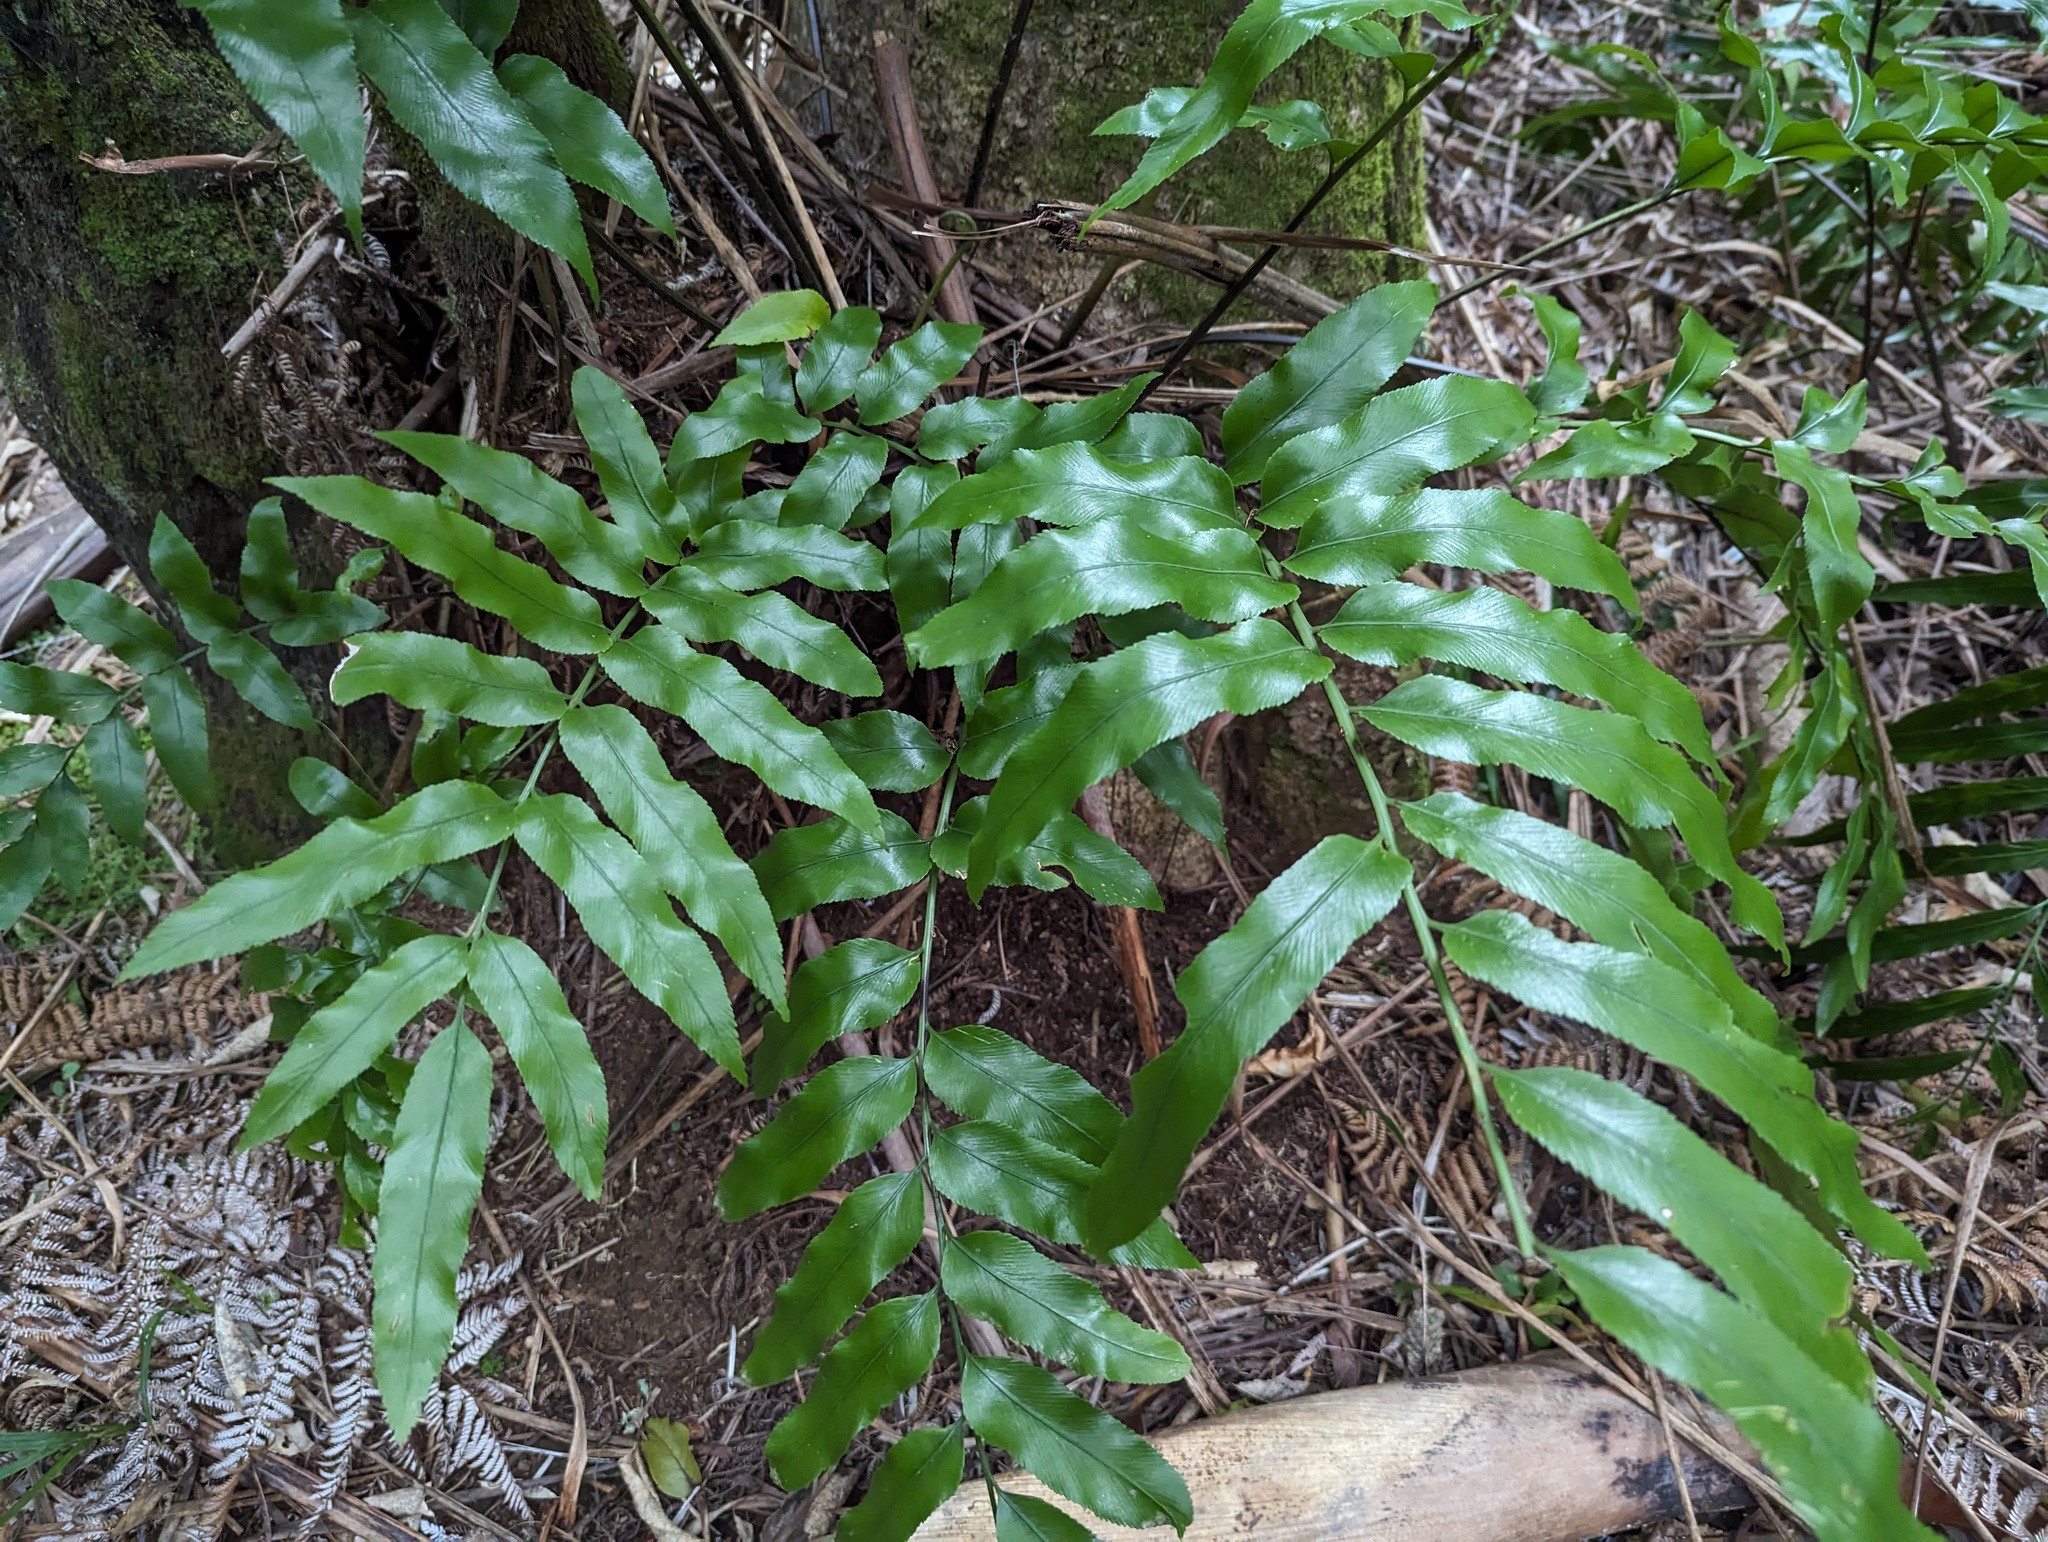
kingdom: Plantae
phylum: Tracheophyta
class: Polypodiopsida
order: Polypodiales
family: Aspleniaceae
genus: Asplenium
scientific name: Asplenium oblongifolium
